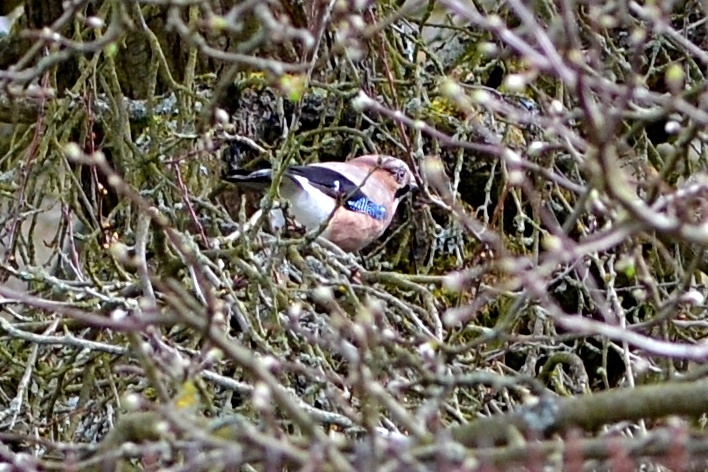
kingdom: Animalia
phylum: Chordata
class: Aves
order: Passeriformes
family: Corvidae
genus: Garrulus
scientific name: Garrulus glandarius
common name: Eurasian jay
